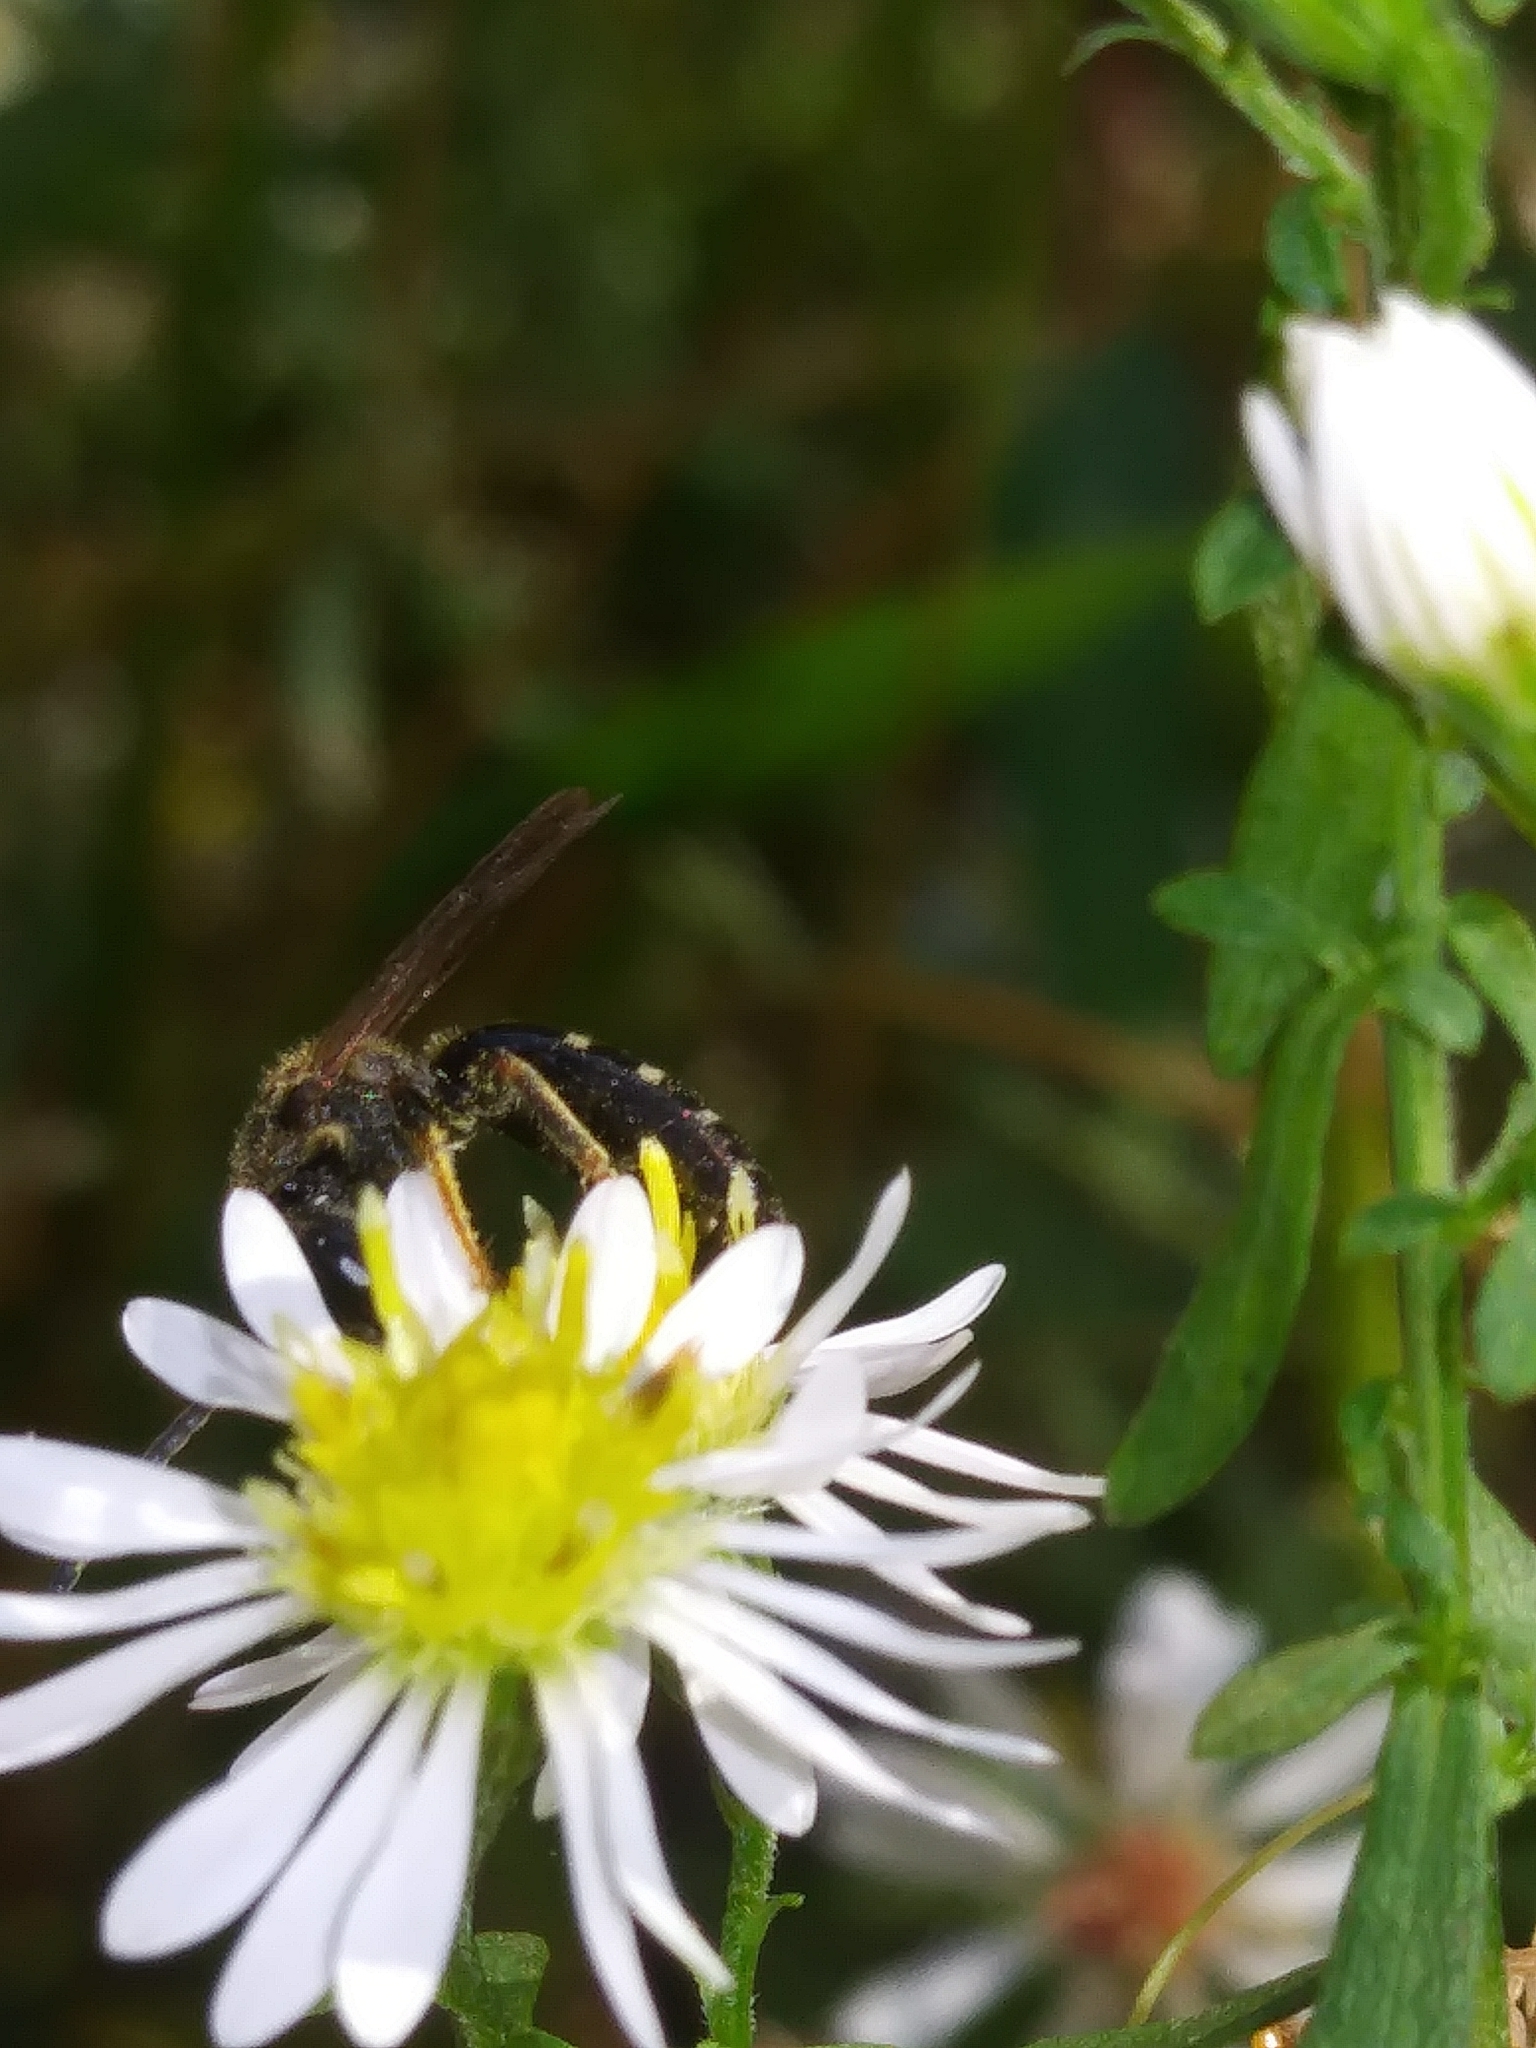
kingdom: Animalia
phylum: Arthropoda
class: Insecta
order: Hymenoptera
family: Halictidae
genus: Lasioglossum
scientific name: Lasioglossum fuscipenne
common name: Brown-winged sweat bee
